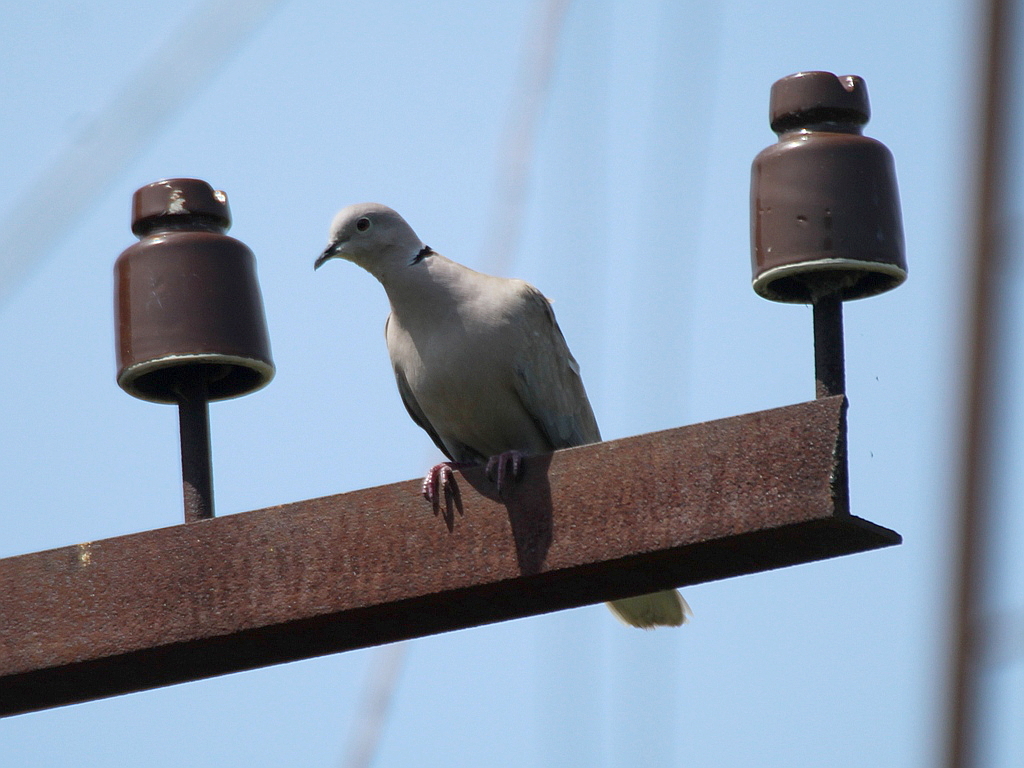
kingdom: Animalia
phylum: Chordata
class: Aves
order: Columbiformes
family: Columbidae
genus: Streptopelia
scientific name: Streptopelia decaocto
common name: Eurasian collared dove
